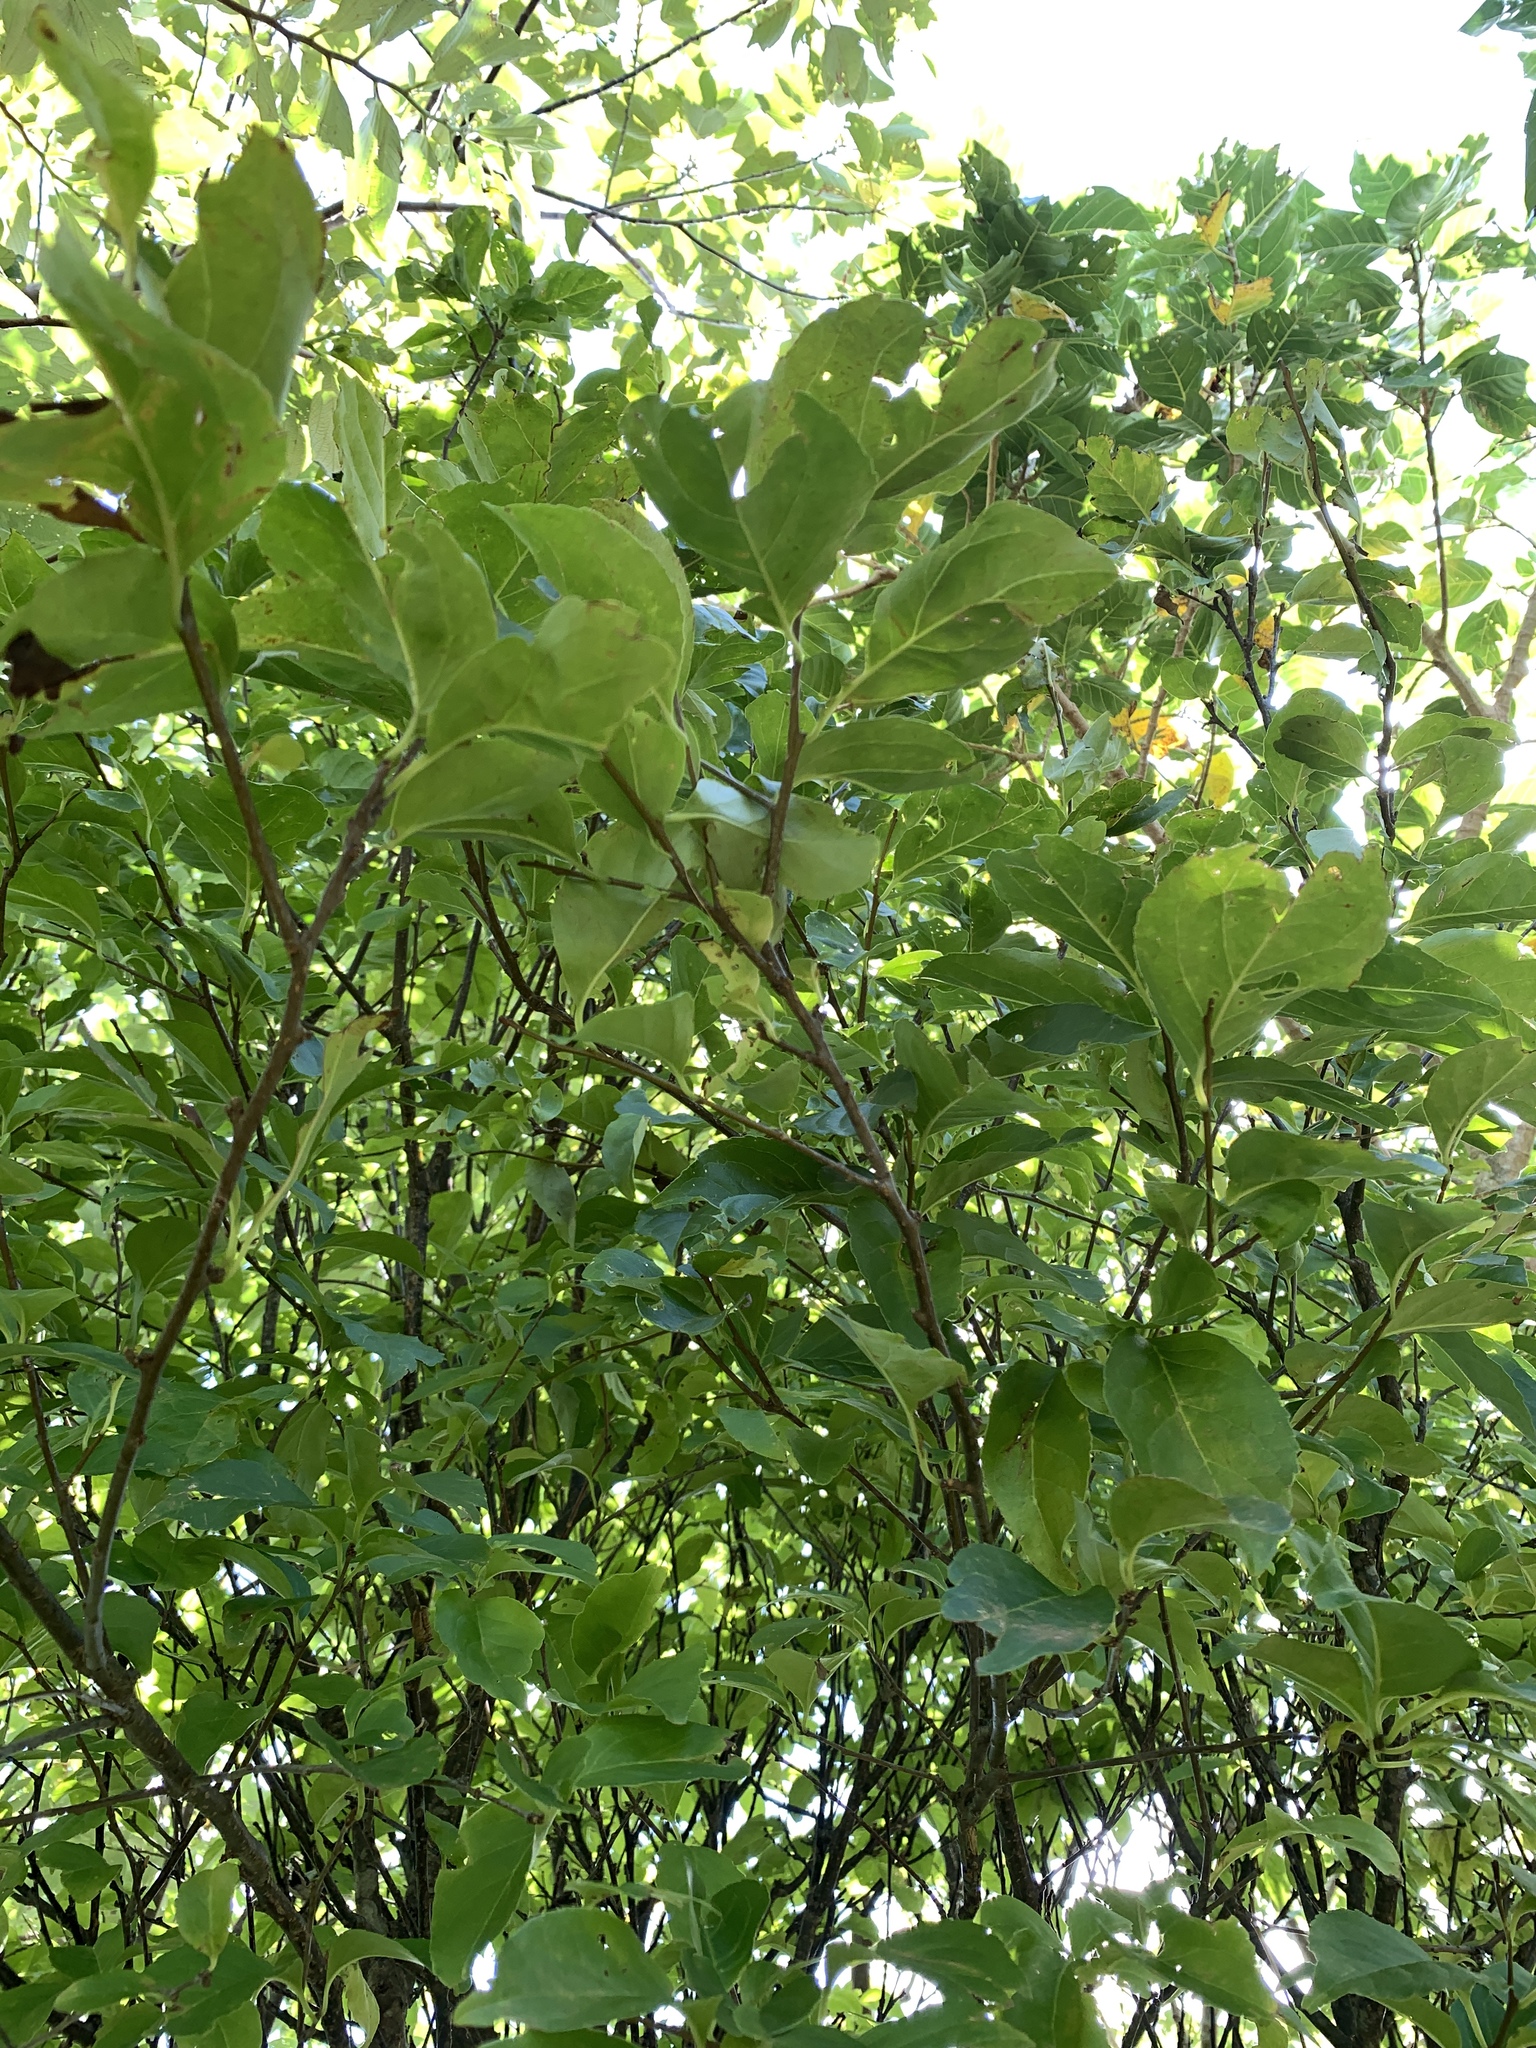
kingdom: Plantae
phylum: Tracheophyta
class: Magnoliopsida
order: Aquifoliales
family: Aquifoliaceae
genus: Ilex
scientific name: Ilex kusanoi
